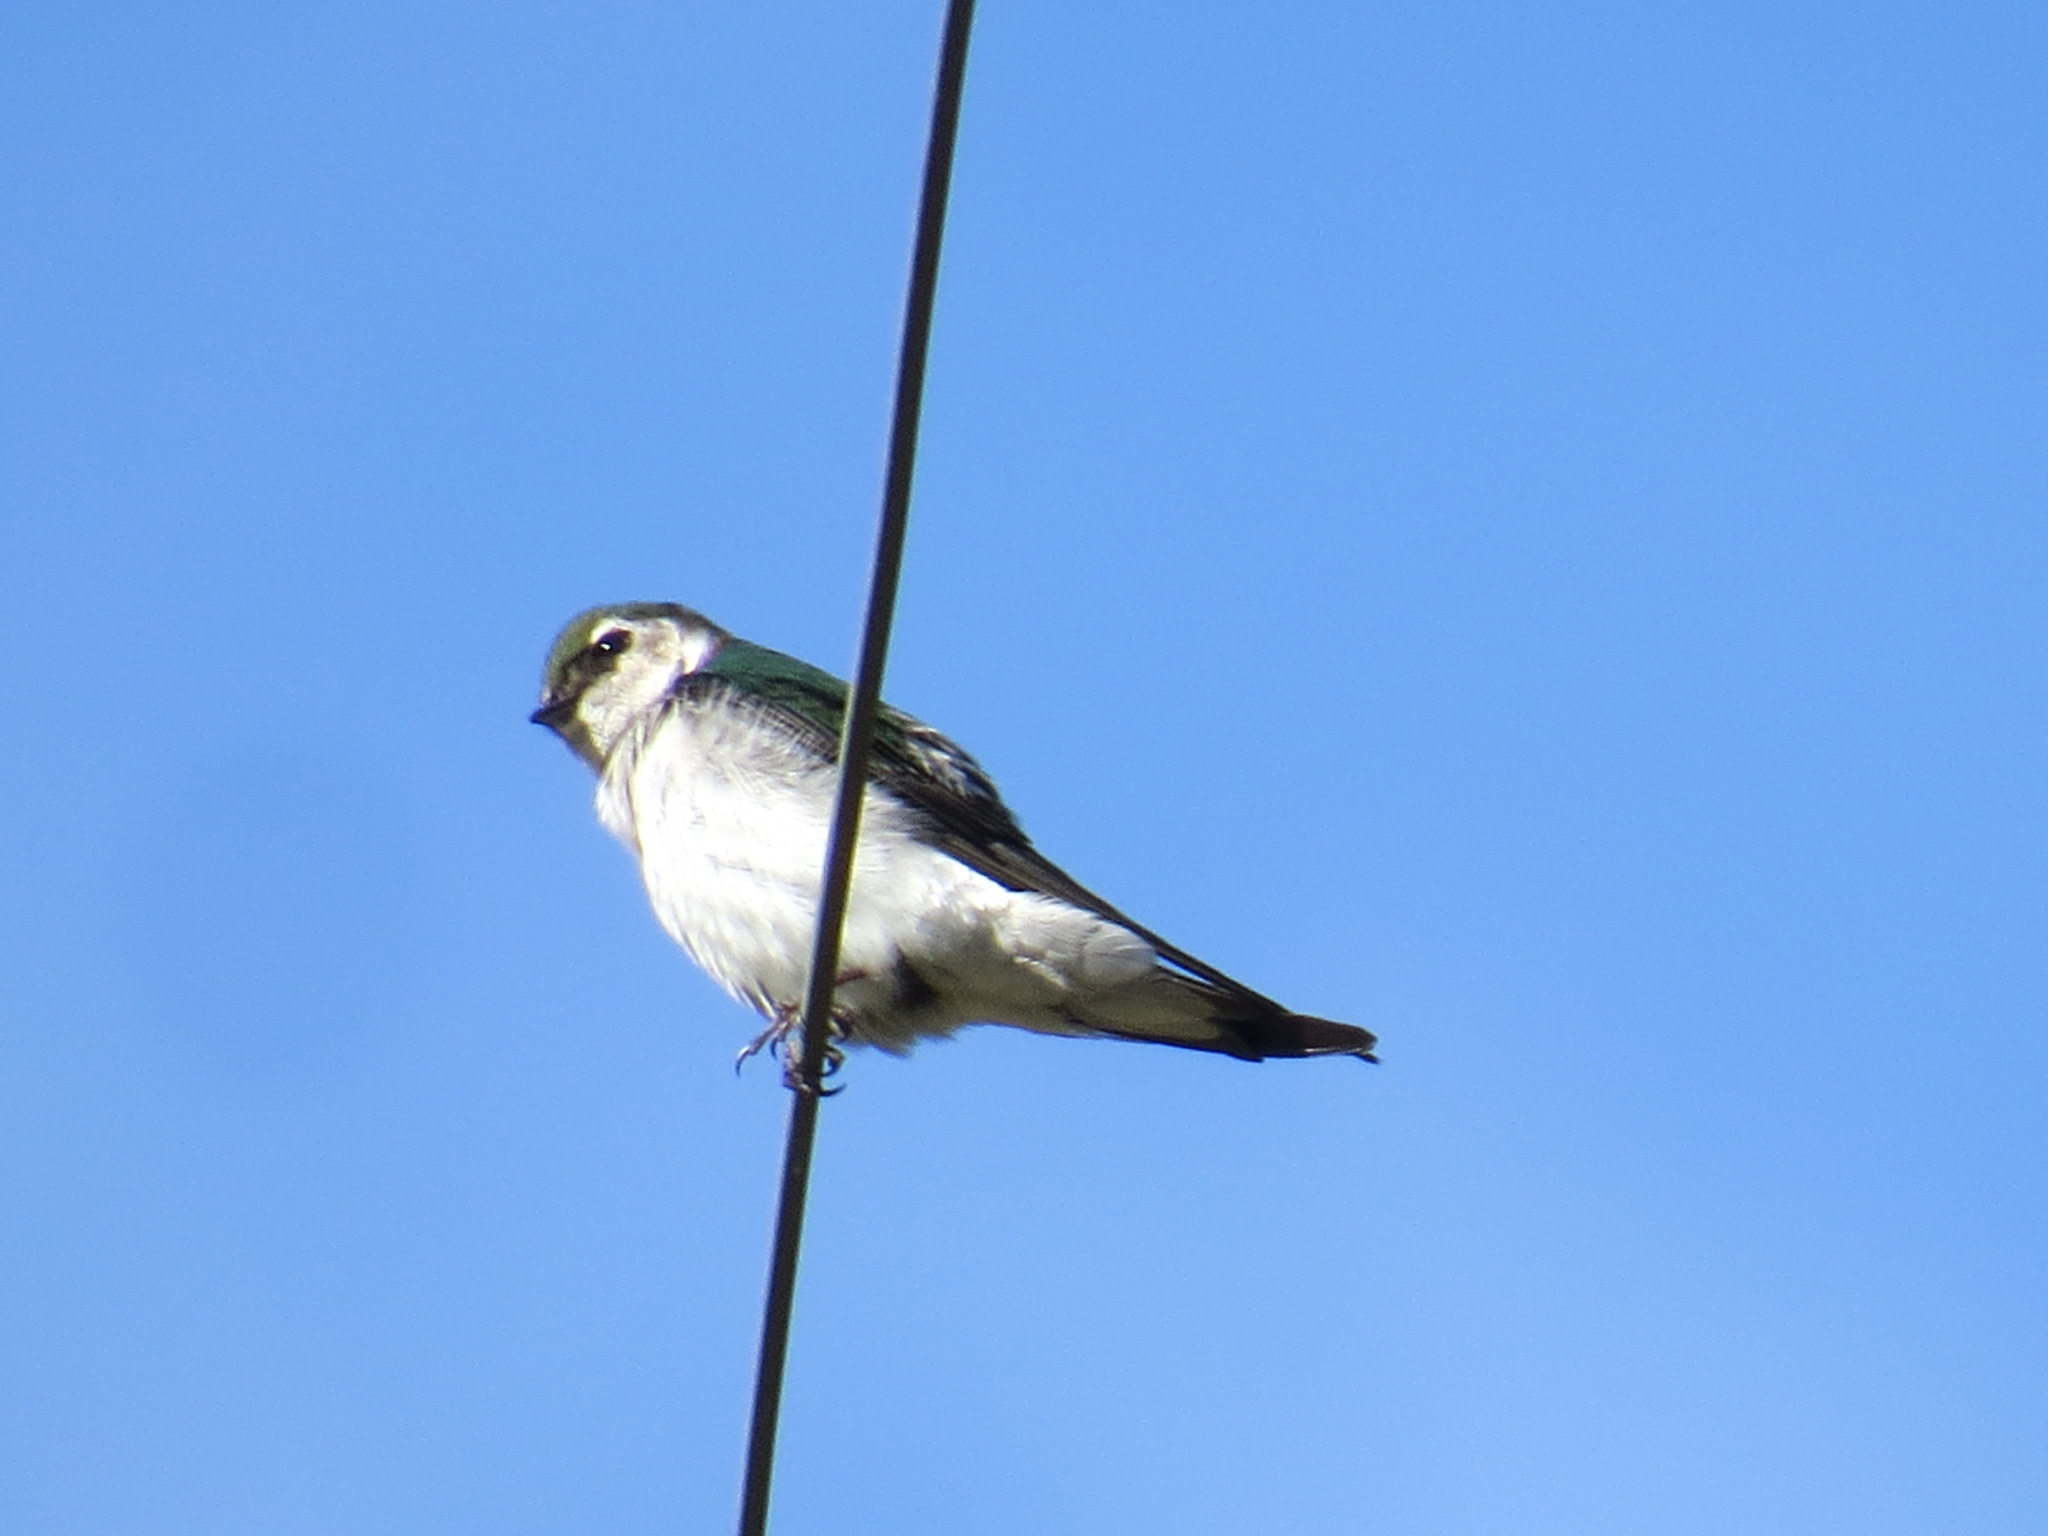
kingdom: Animalia
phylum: Chordata
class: Aves
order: Passeriformes
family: Hirundinidae
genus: Tachycineta
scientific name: Tachycineta thalassina
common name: Violet-green swallow
